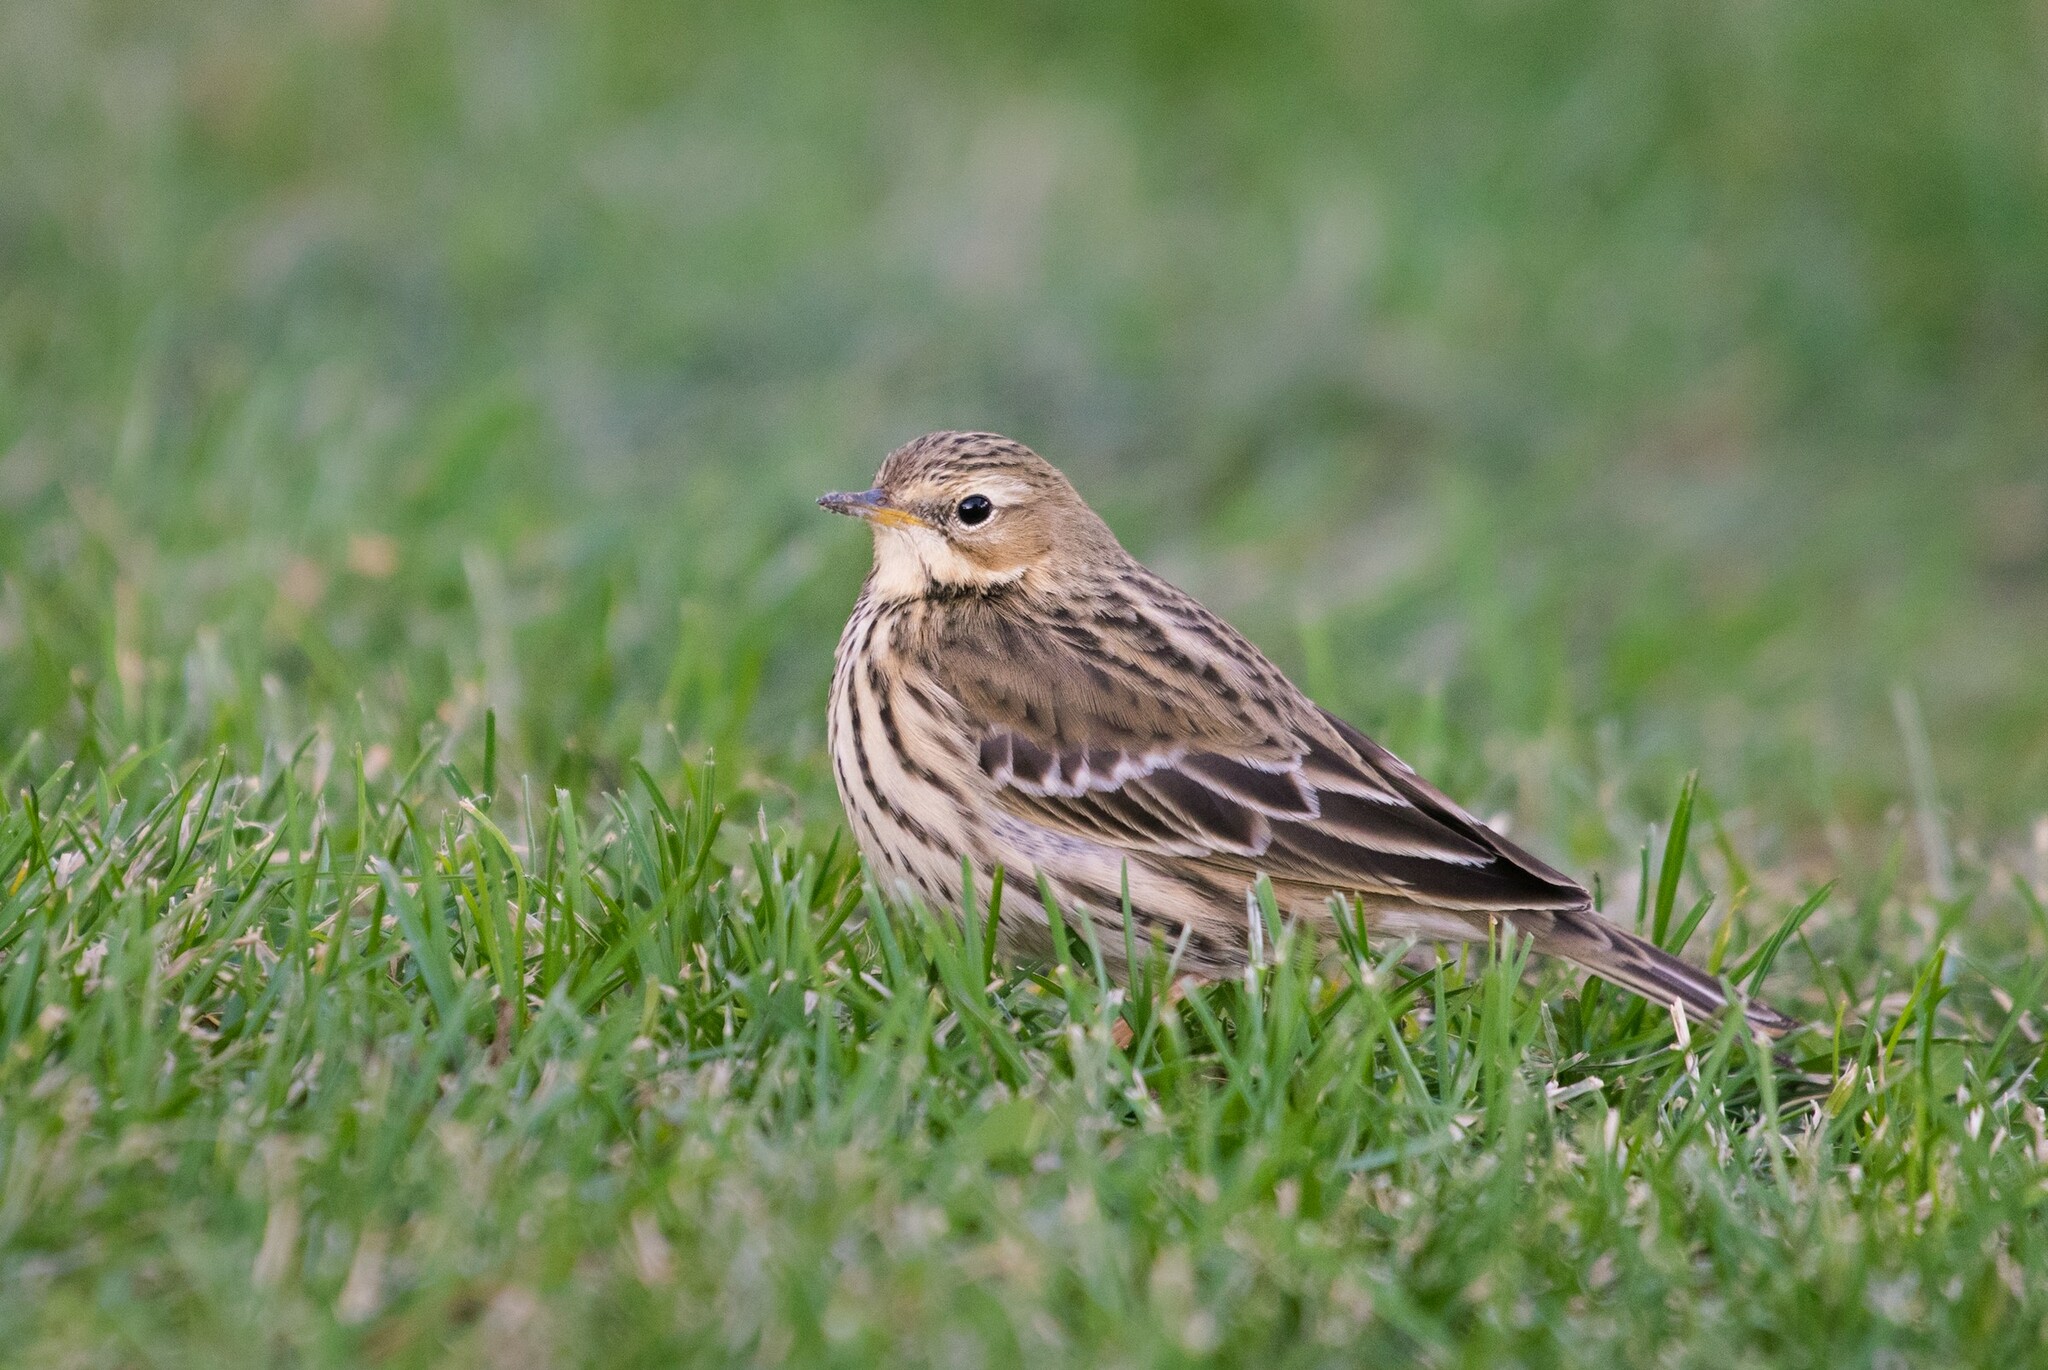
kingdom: Animalia
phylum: Chordata
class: Aves
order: Passeriformes
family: Motacillidae
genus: Anthus
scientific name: Anthus cervinus
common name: Red-throated pipit
